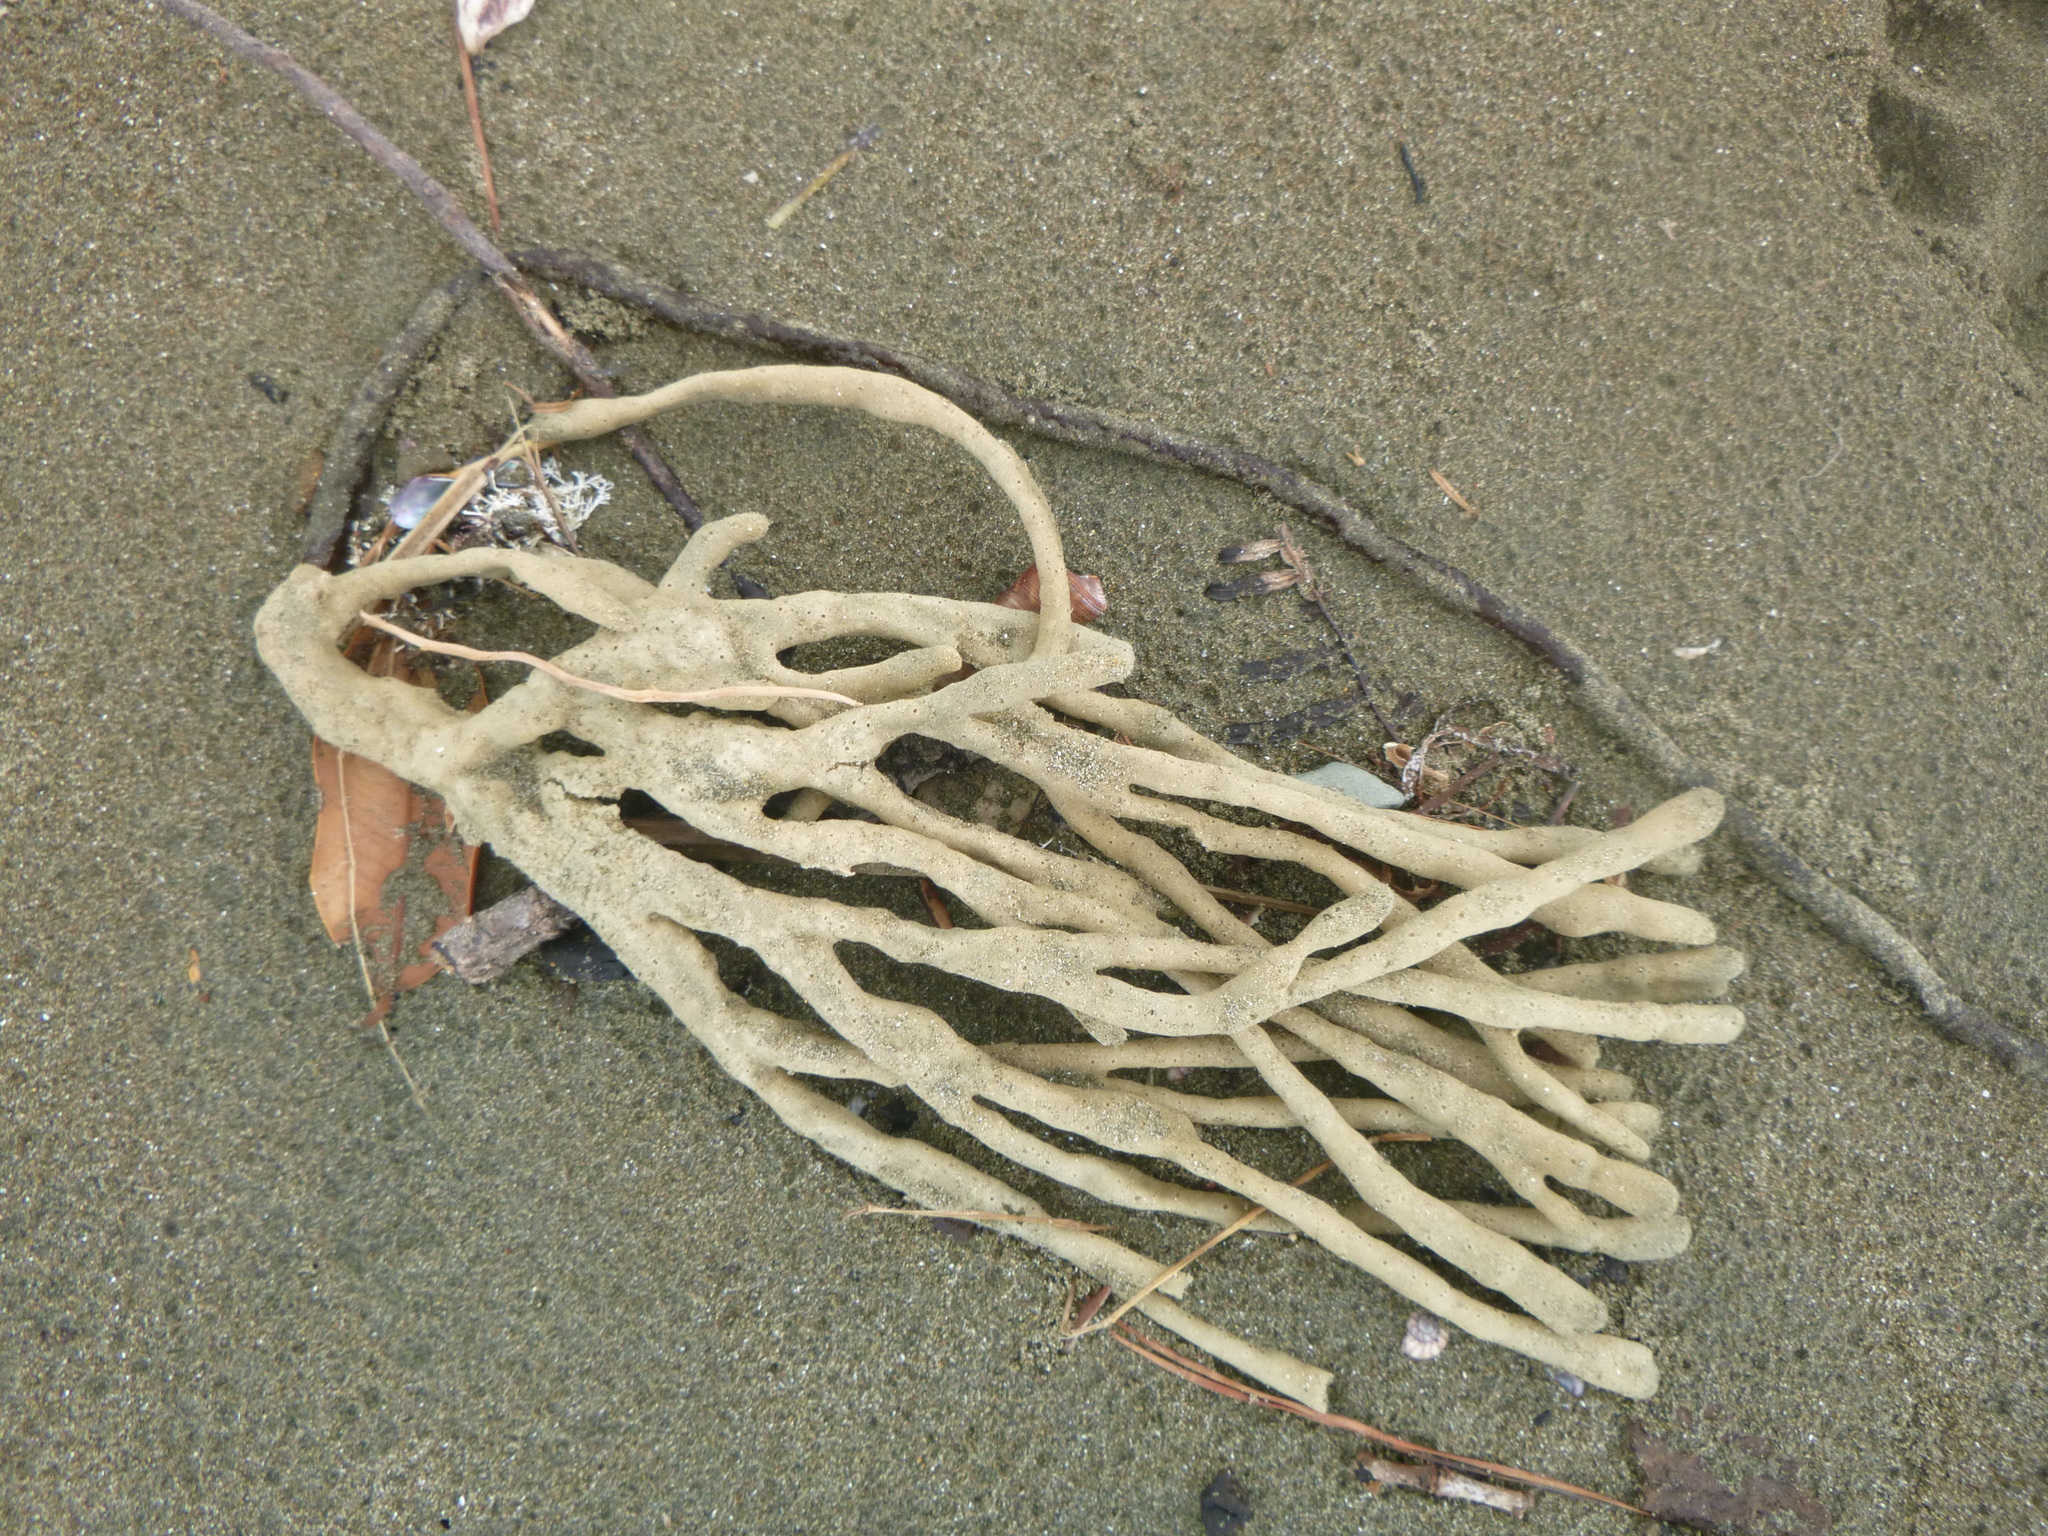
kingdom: Animalia
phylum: Porifera
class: Demospongiae
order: Haplosclerida
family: Callyspongiidae
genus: Callyspongia
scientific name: Callyspongia nuda
